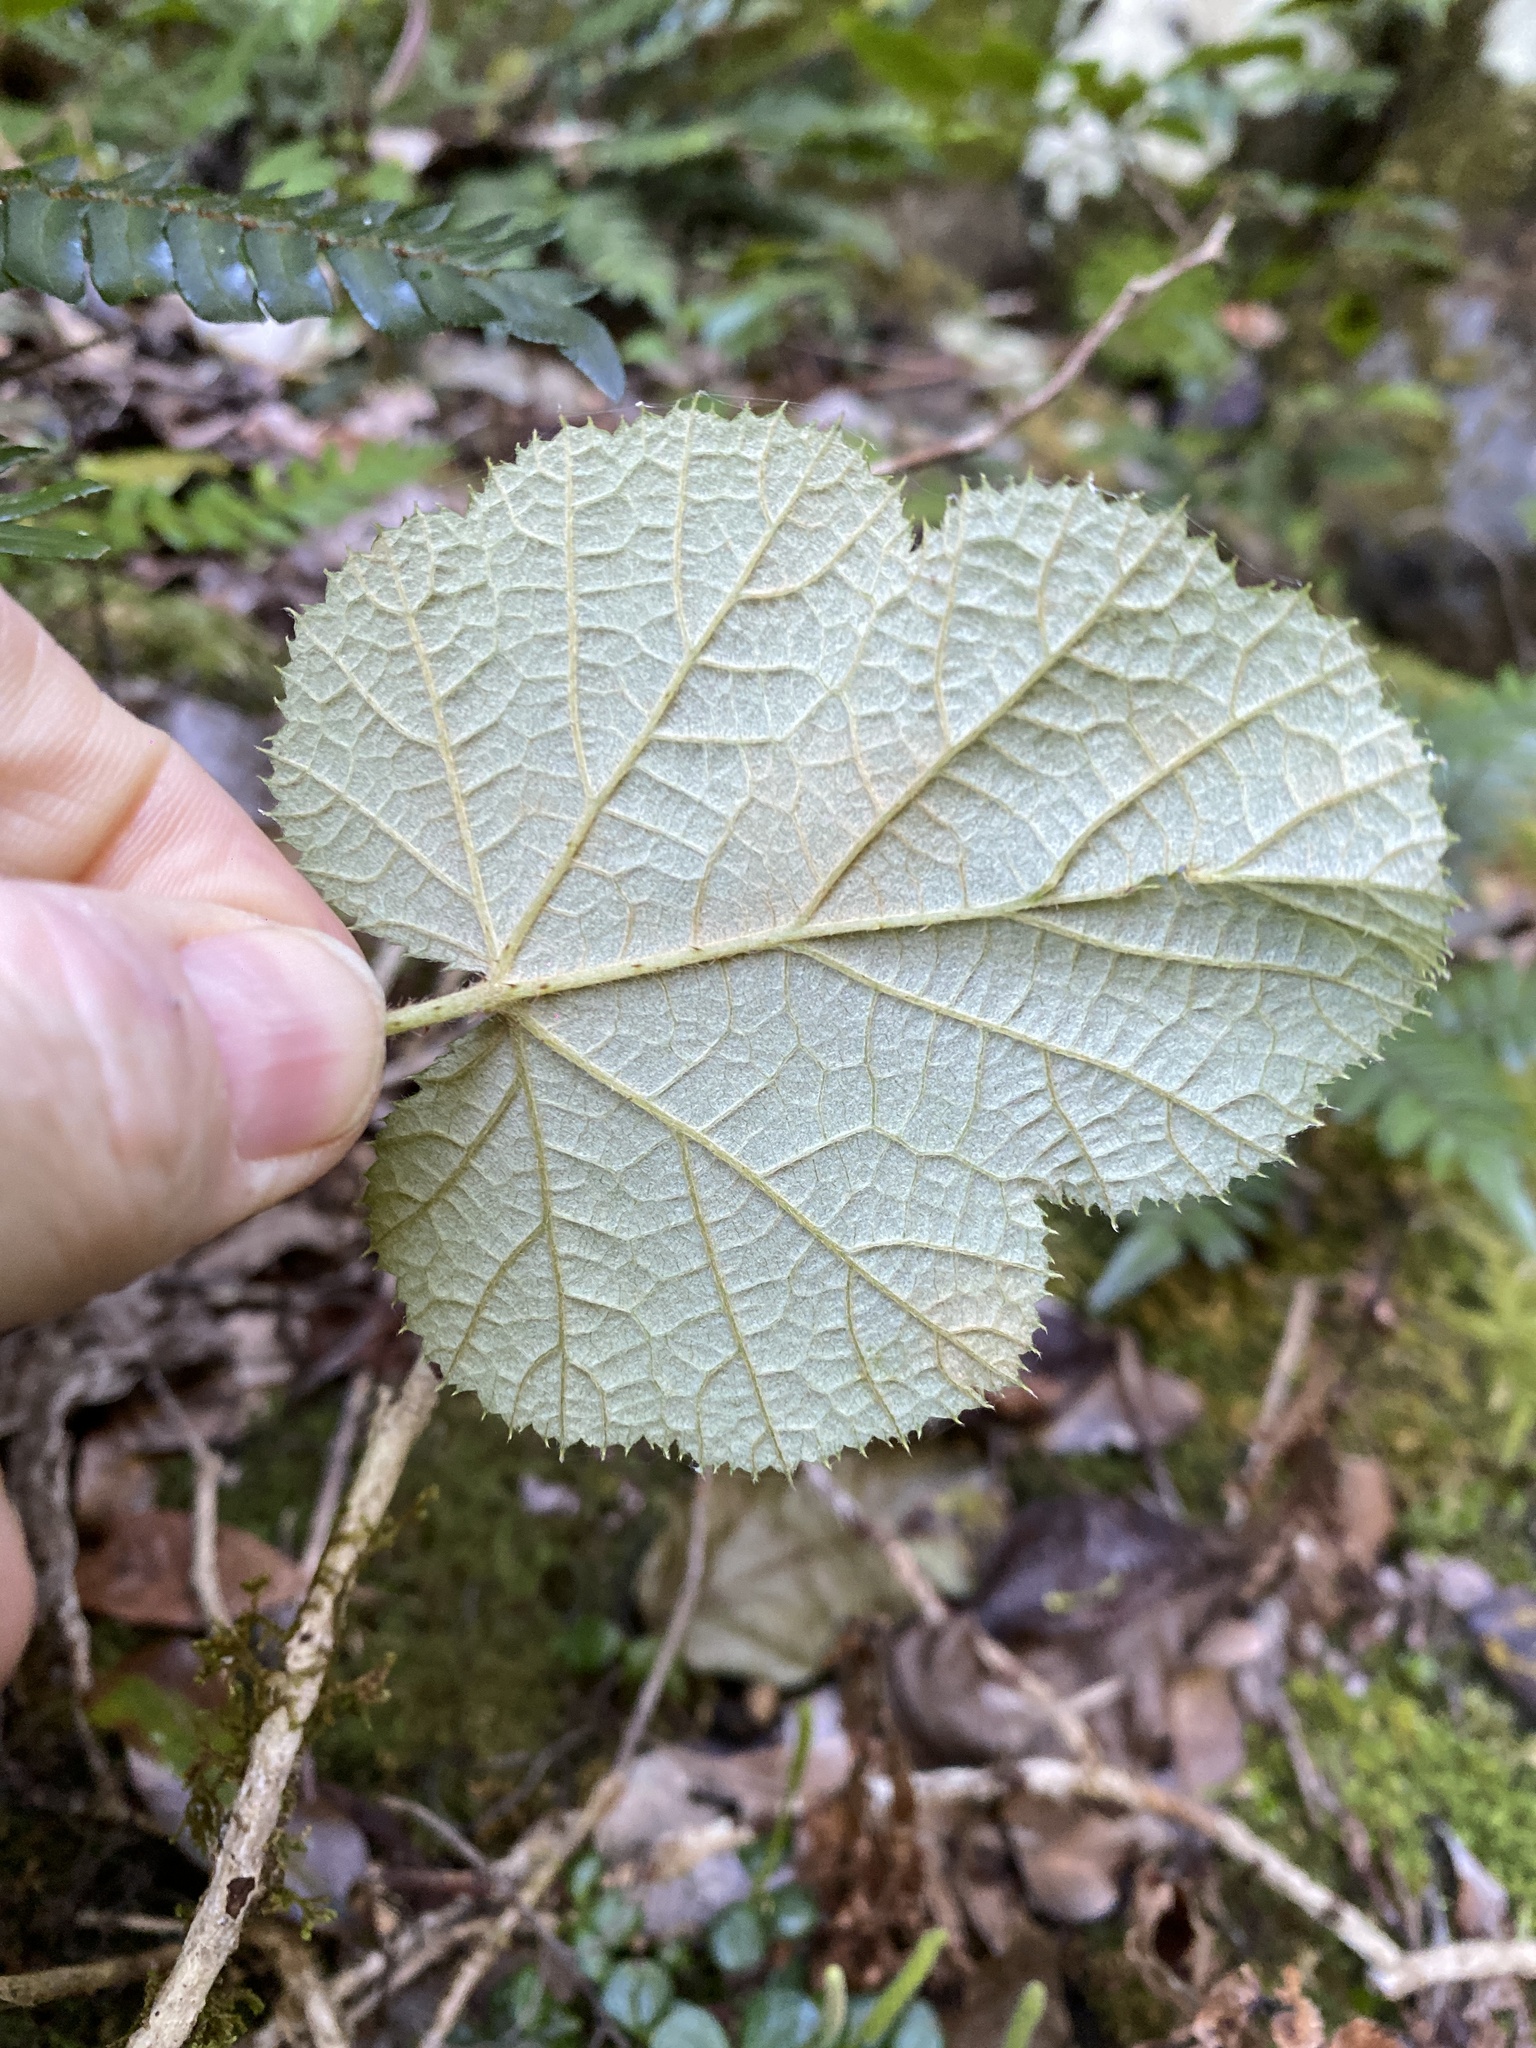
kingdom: Plantae
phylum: Tracheophyta
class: Magnoliopsida
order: Rosales
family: Rosaceae
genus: Rubus
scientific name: Rubus moluccanus
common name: Wild raspberry
